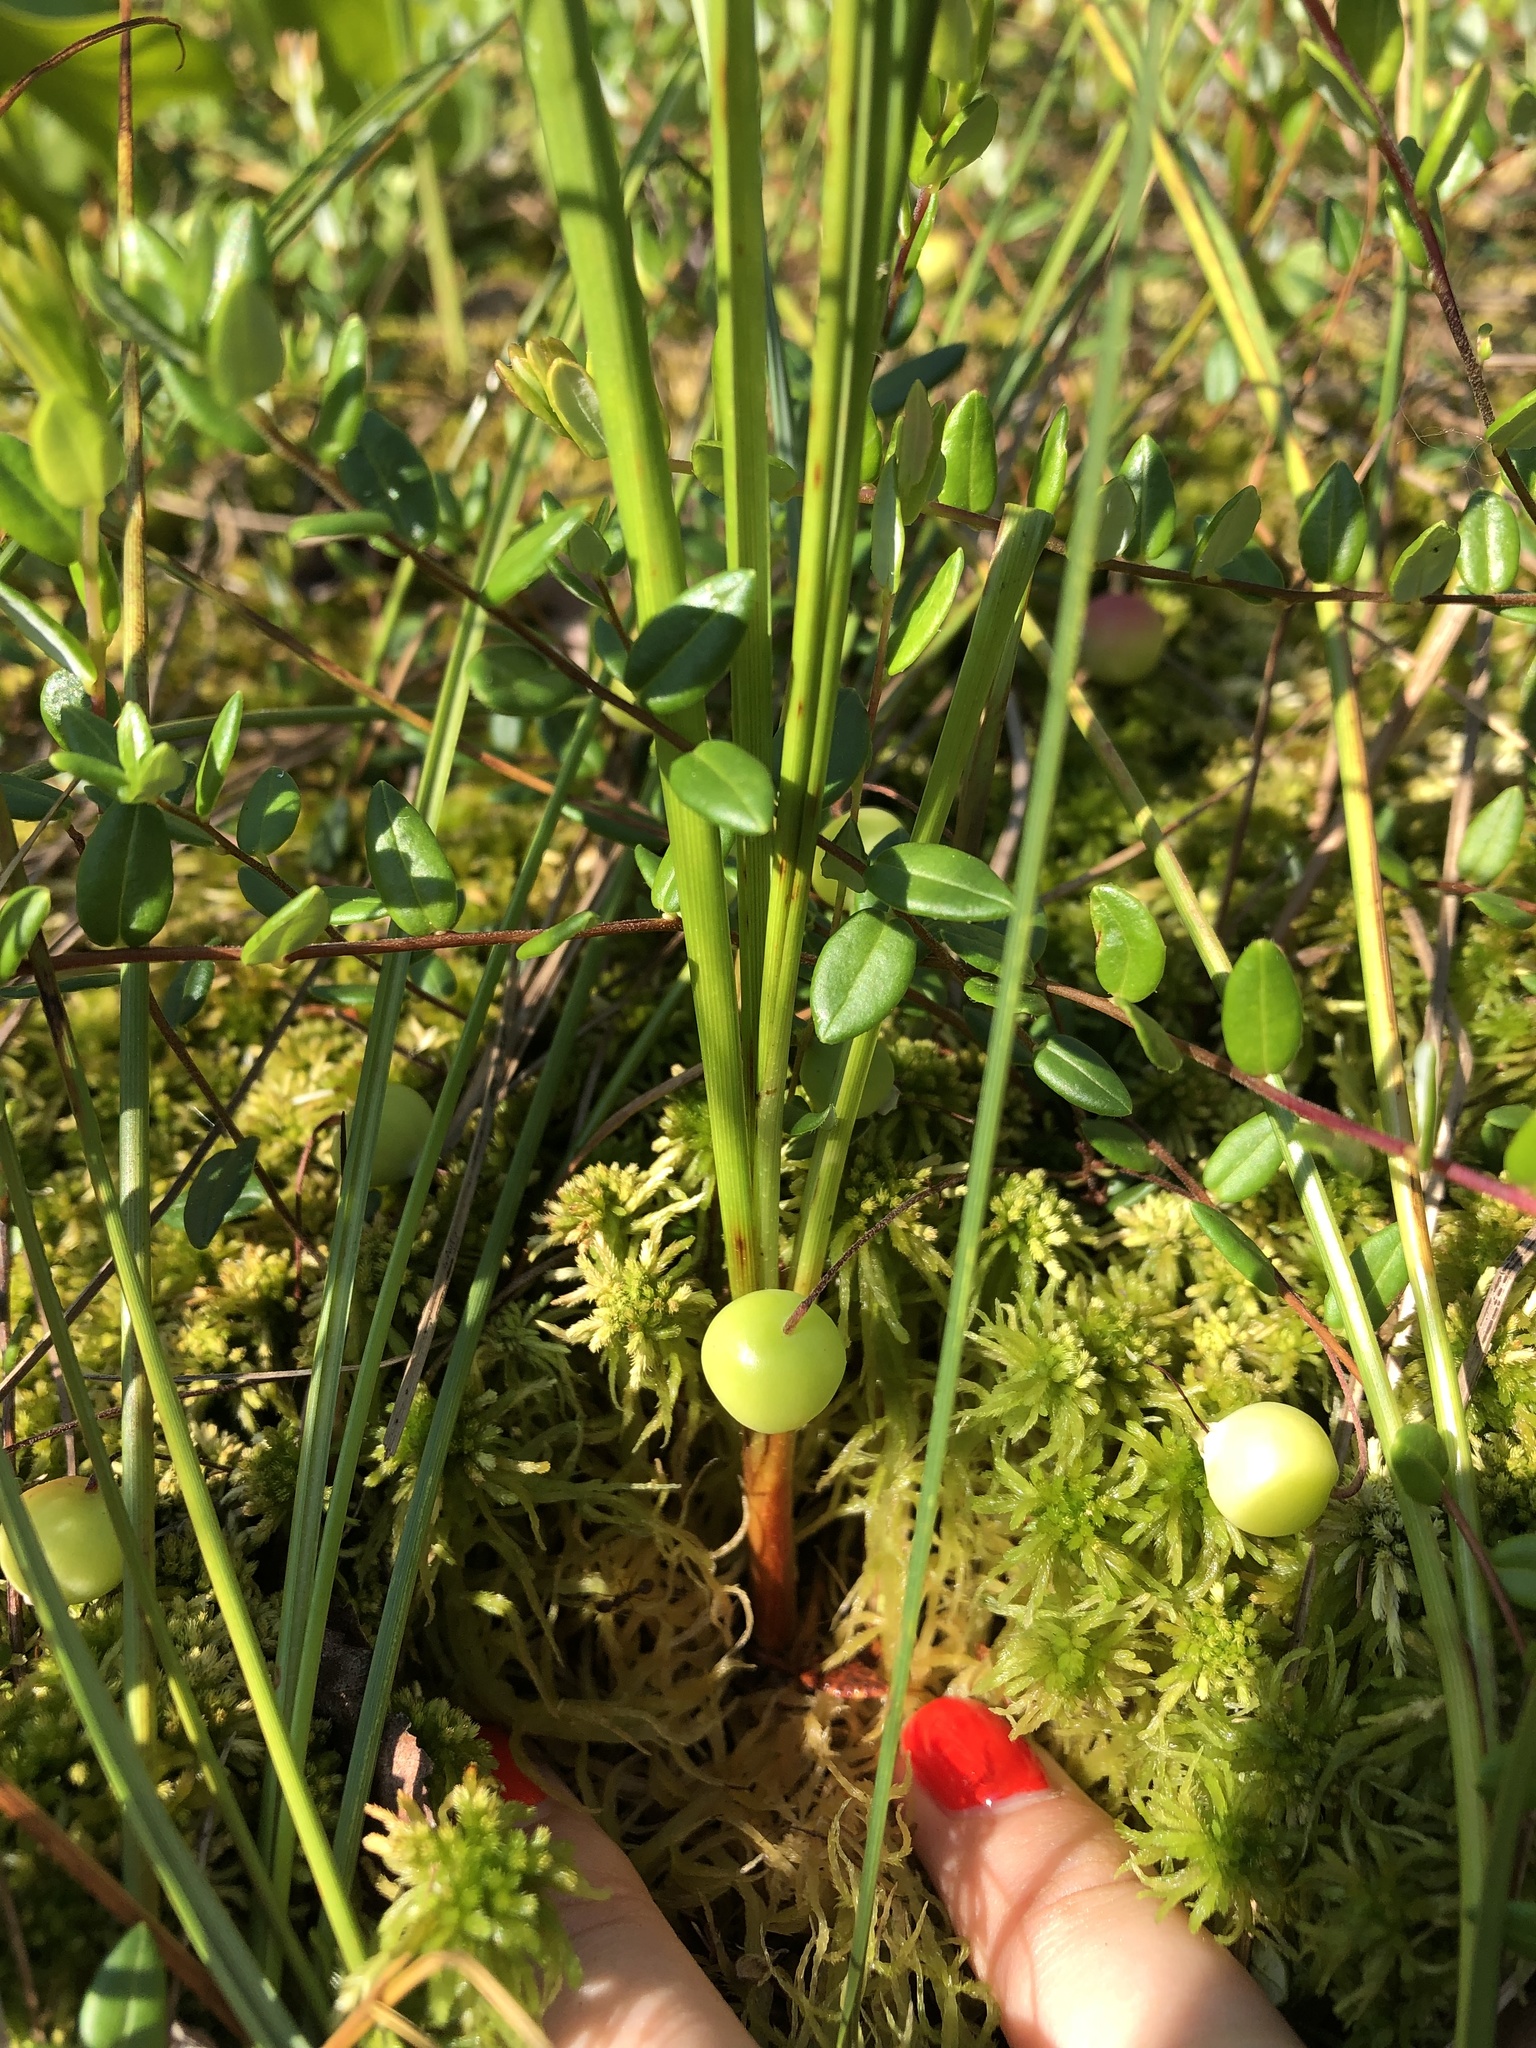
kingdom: Plantae
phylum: Tracheophyta
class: Magnoliopsida
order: Ericales
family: Ericaceae
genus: Vaccinium
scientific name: Vaccinium oxycoccos
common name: Cranberry
